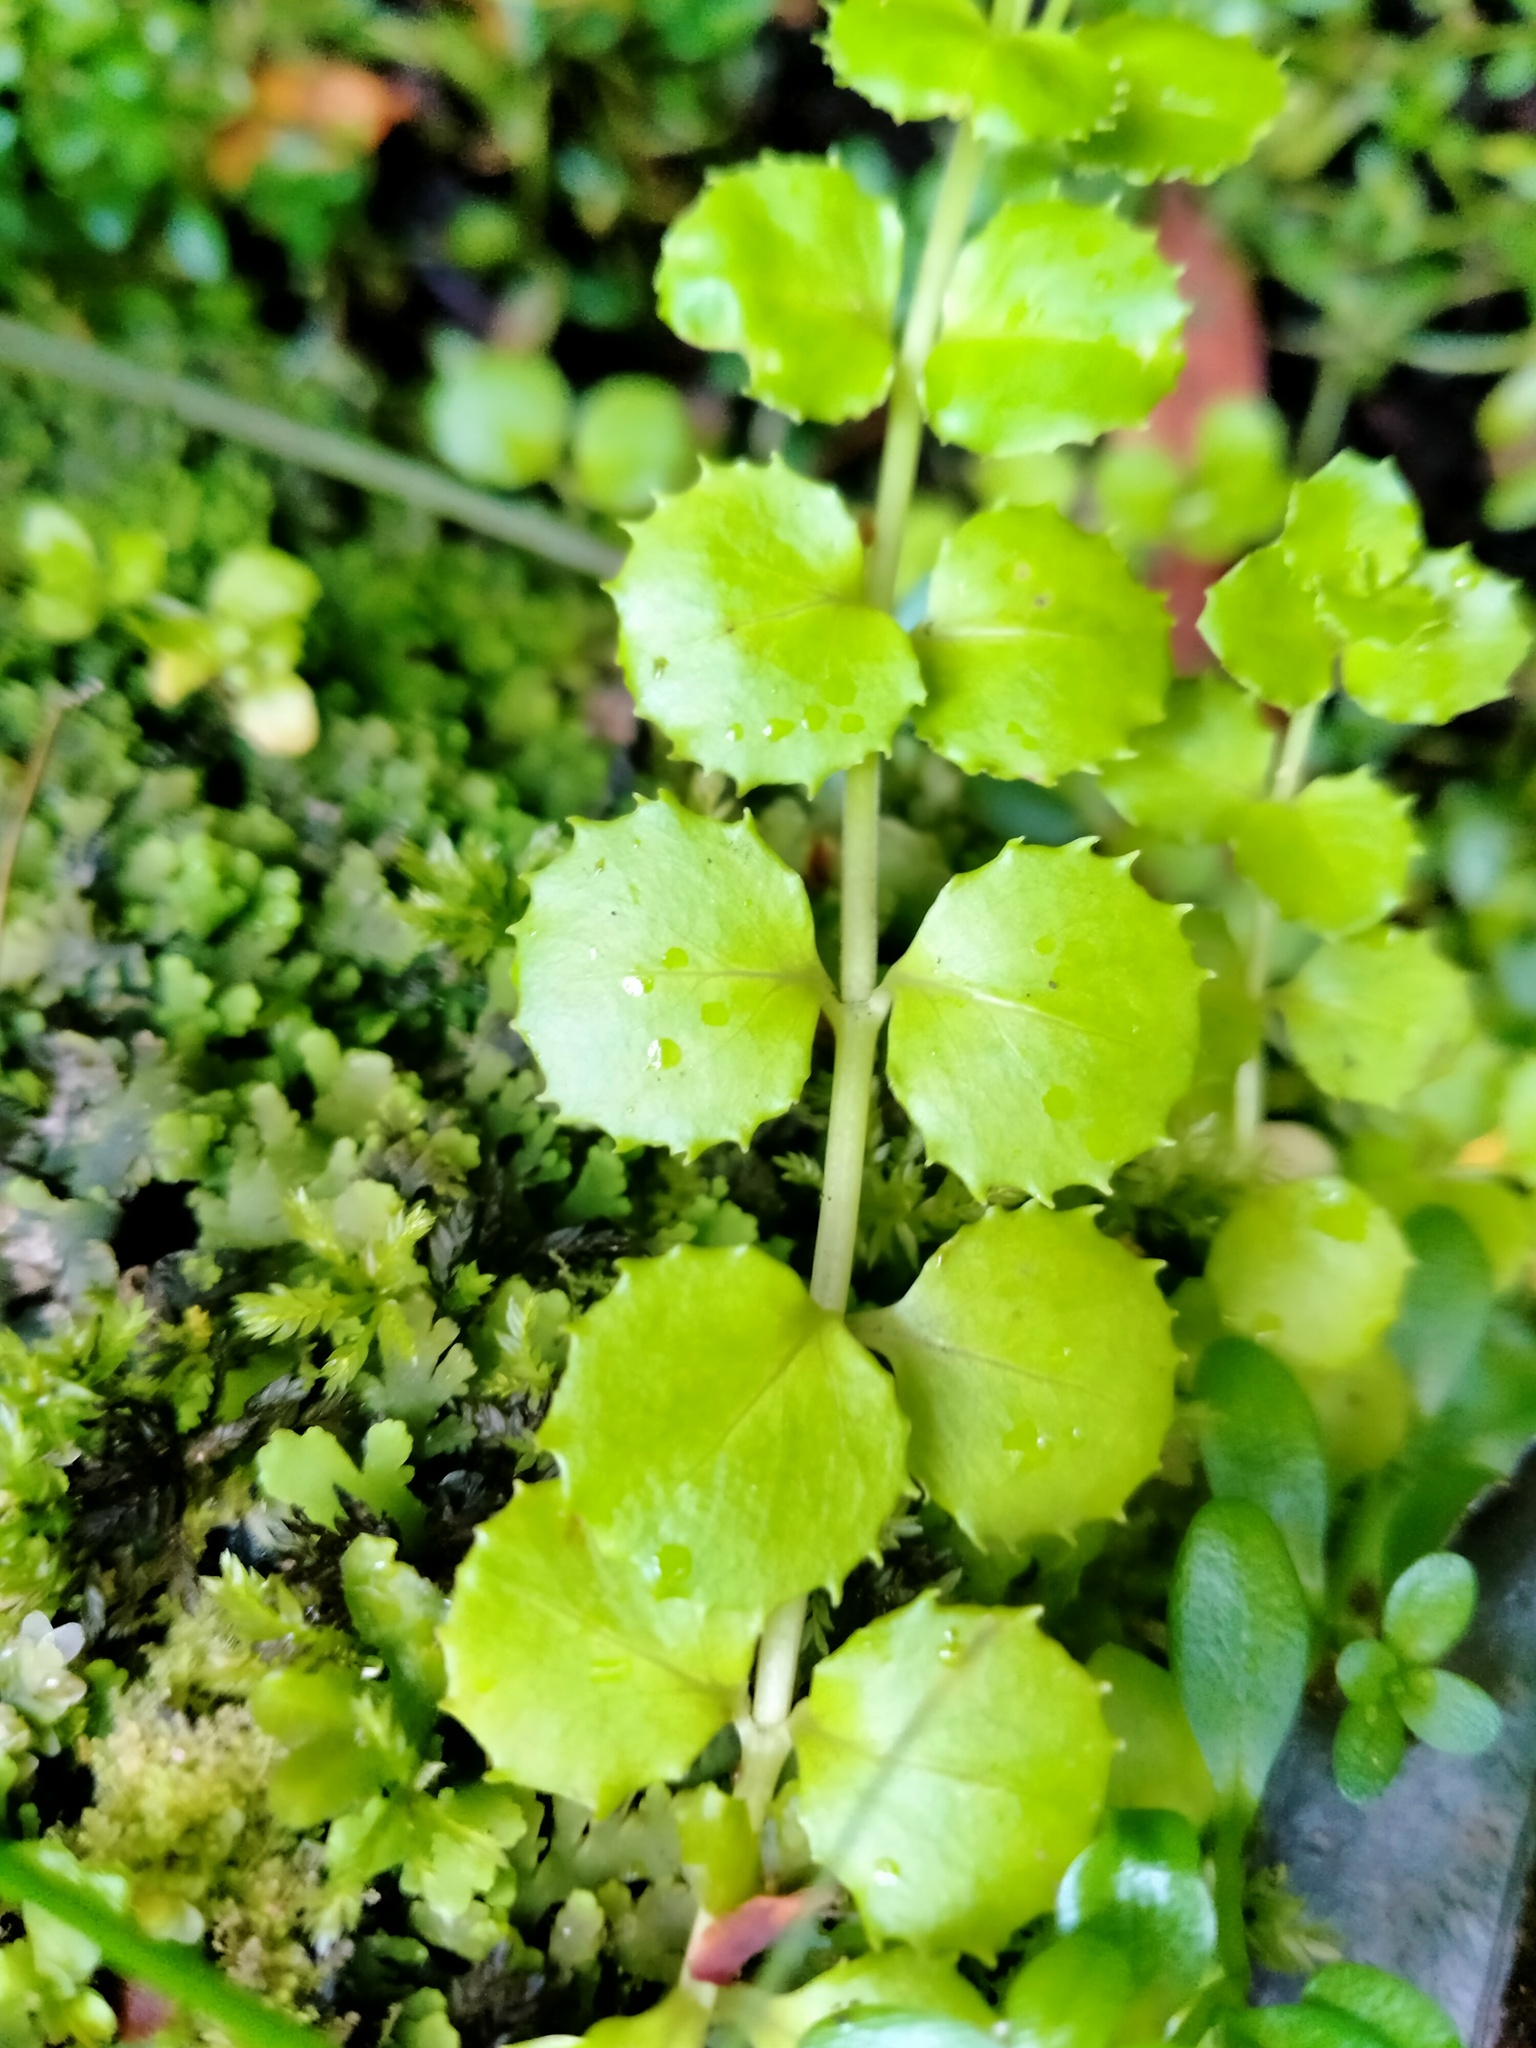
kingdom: Plantae
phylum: Tracheophyta
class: Magnoliopsida
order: Myrtales
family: Onagraceae
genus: Epilobium
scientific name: Epilobium pedunculare
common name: Rockery willowherb
